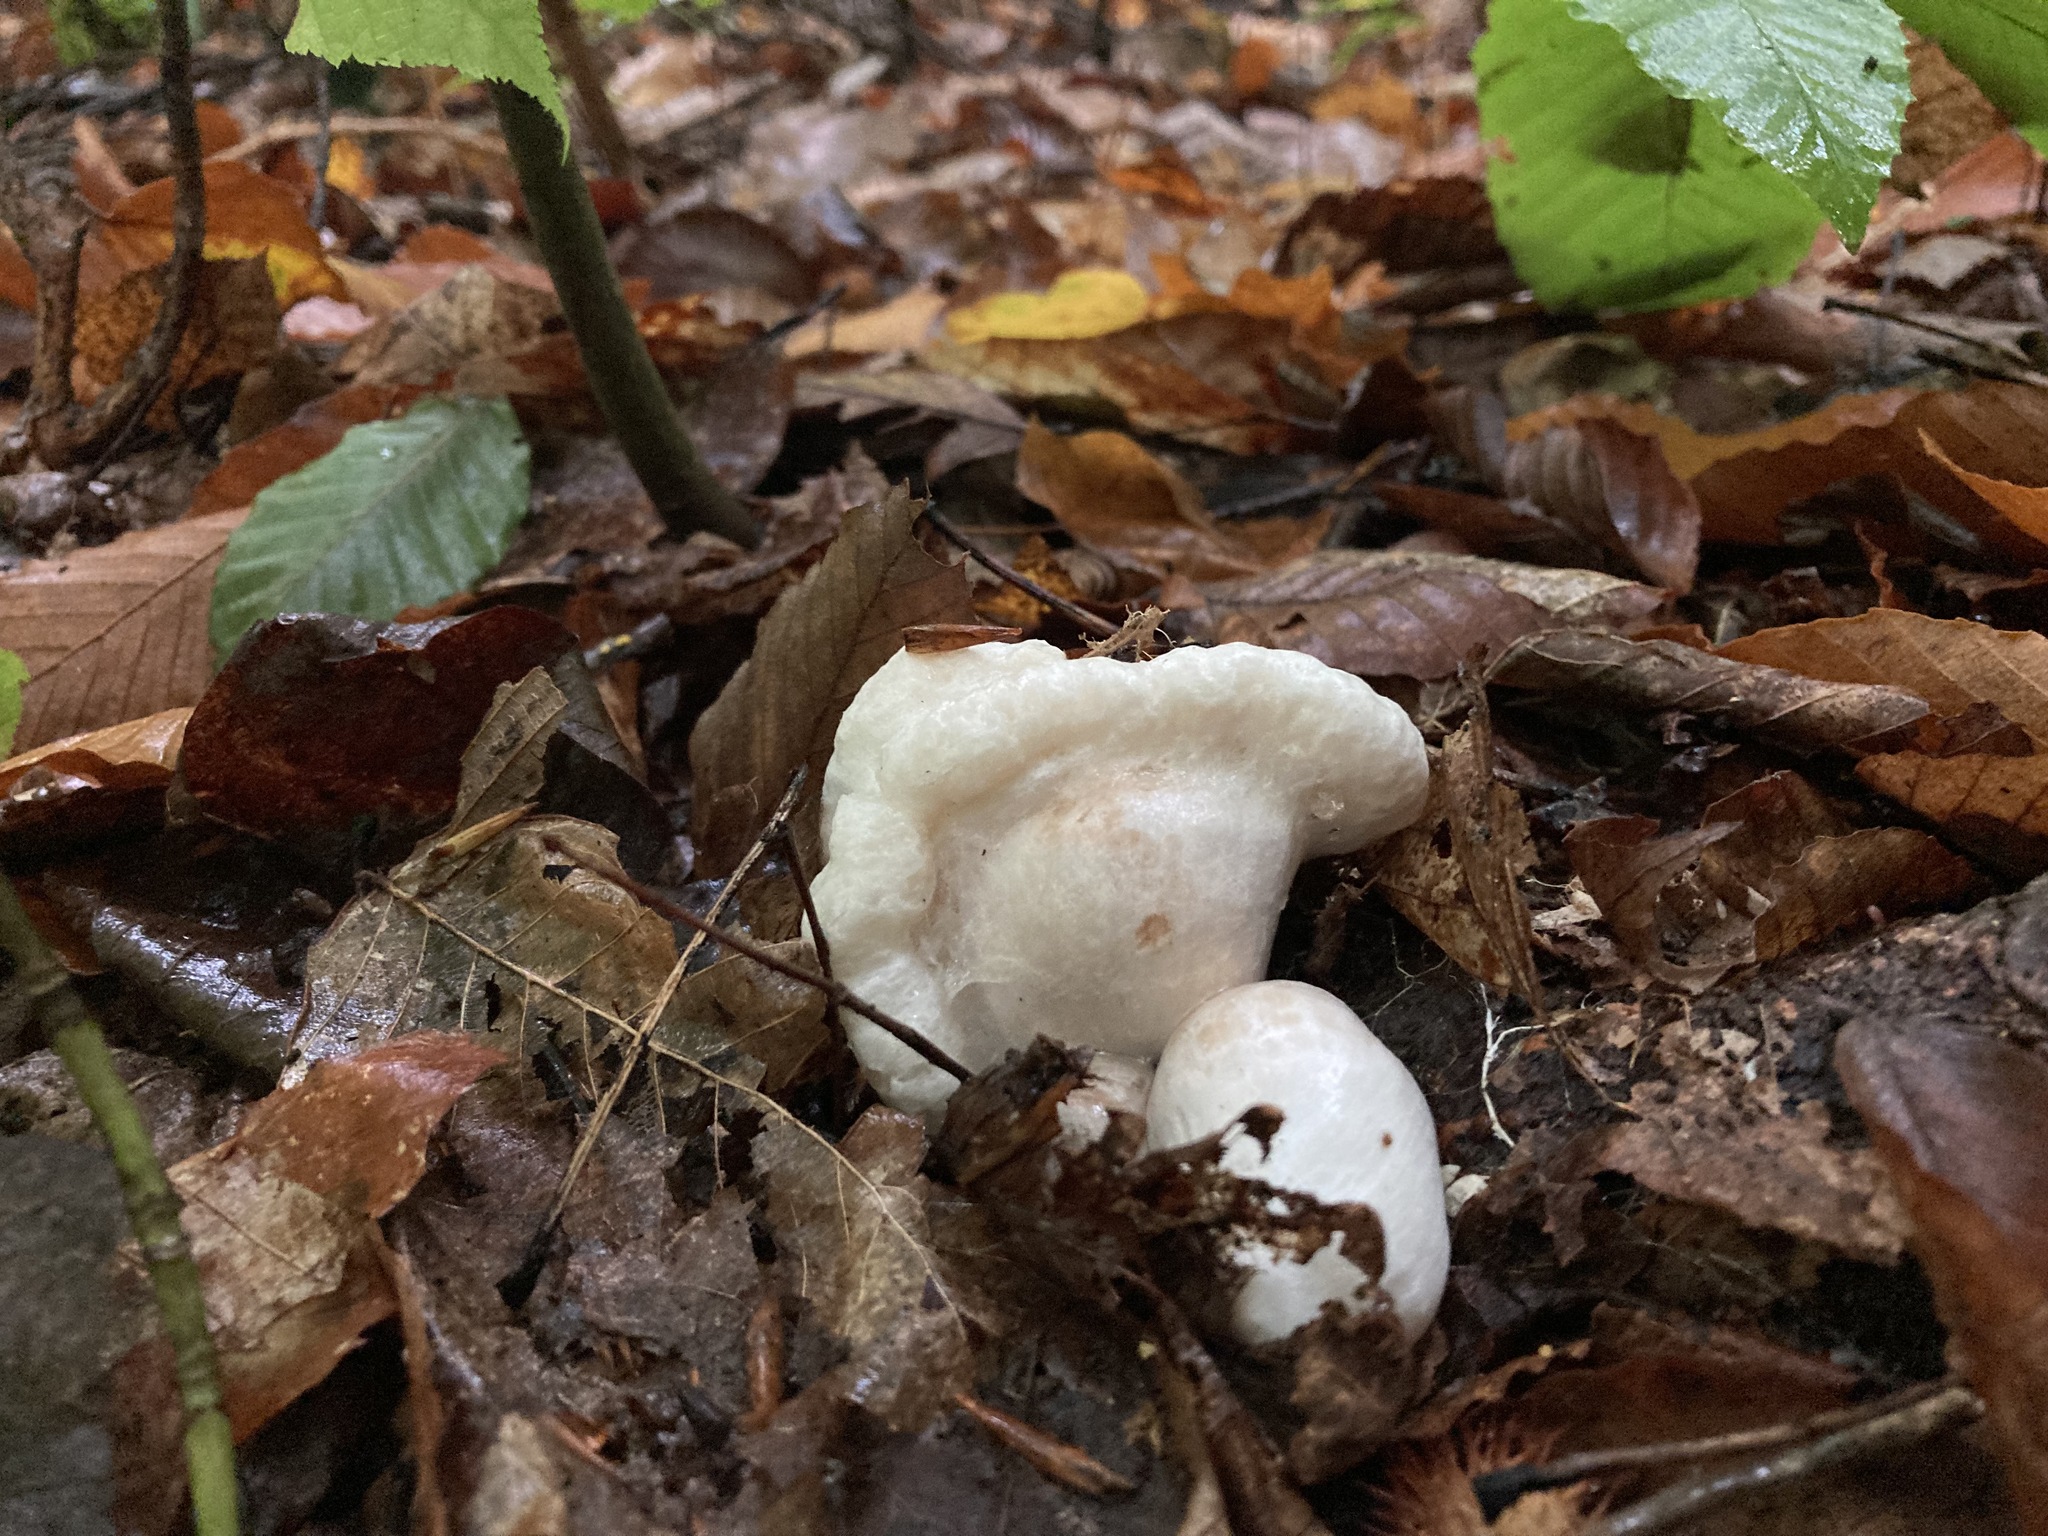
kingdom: Fungi
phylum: Basidiomycota
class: Agaricomycetes
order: Agaricales
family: Entolomataceae
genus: Entoloma
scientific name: Entoloma abortivum
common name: Aborted entoloma
